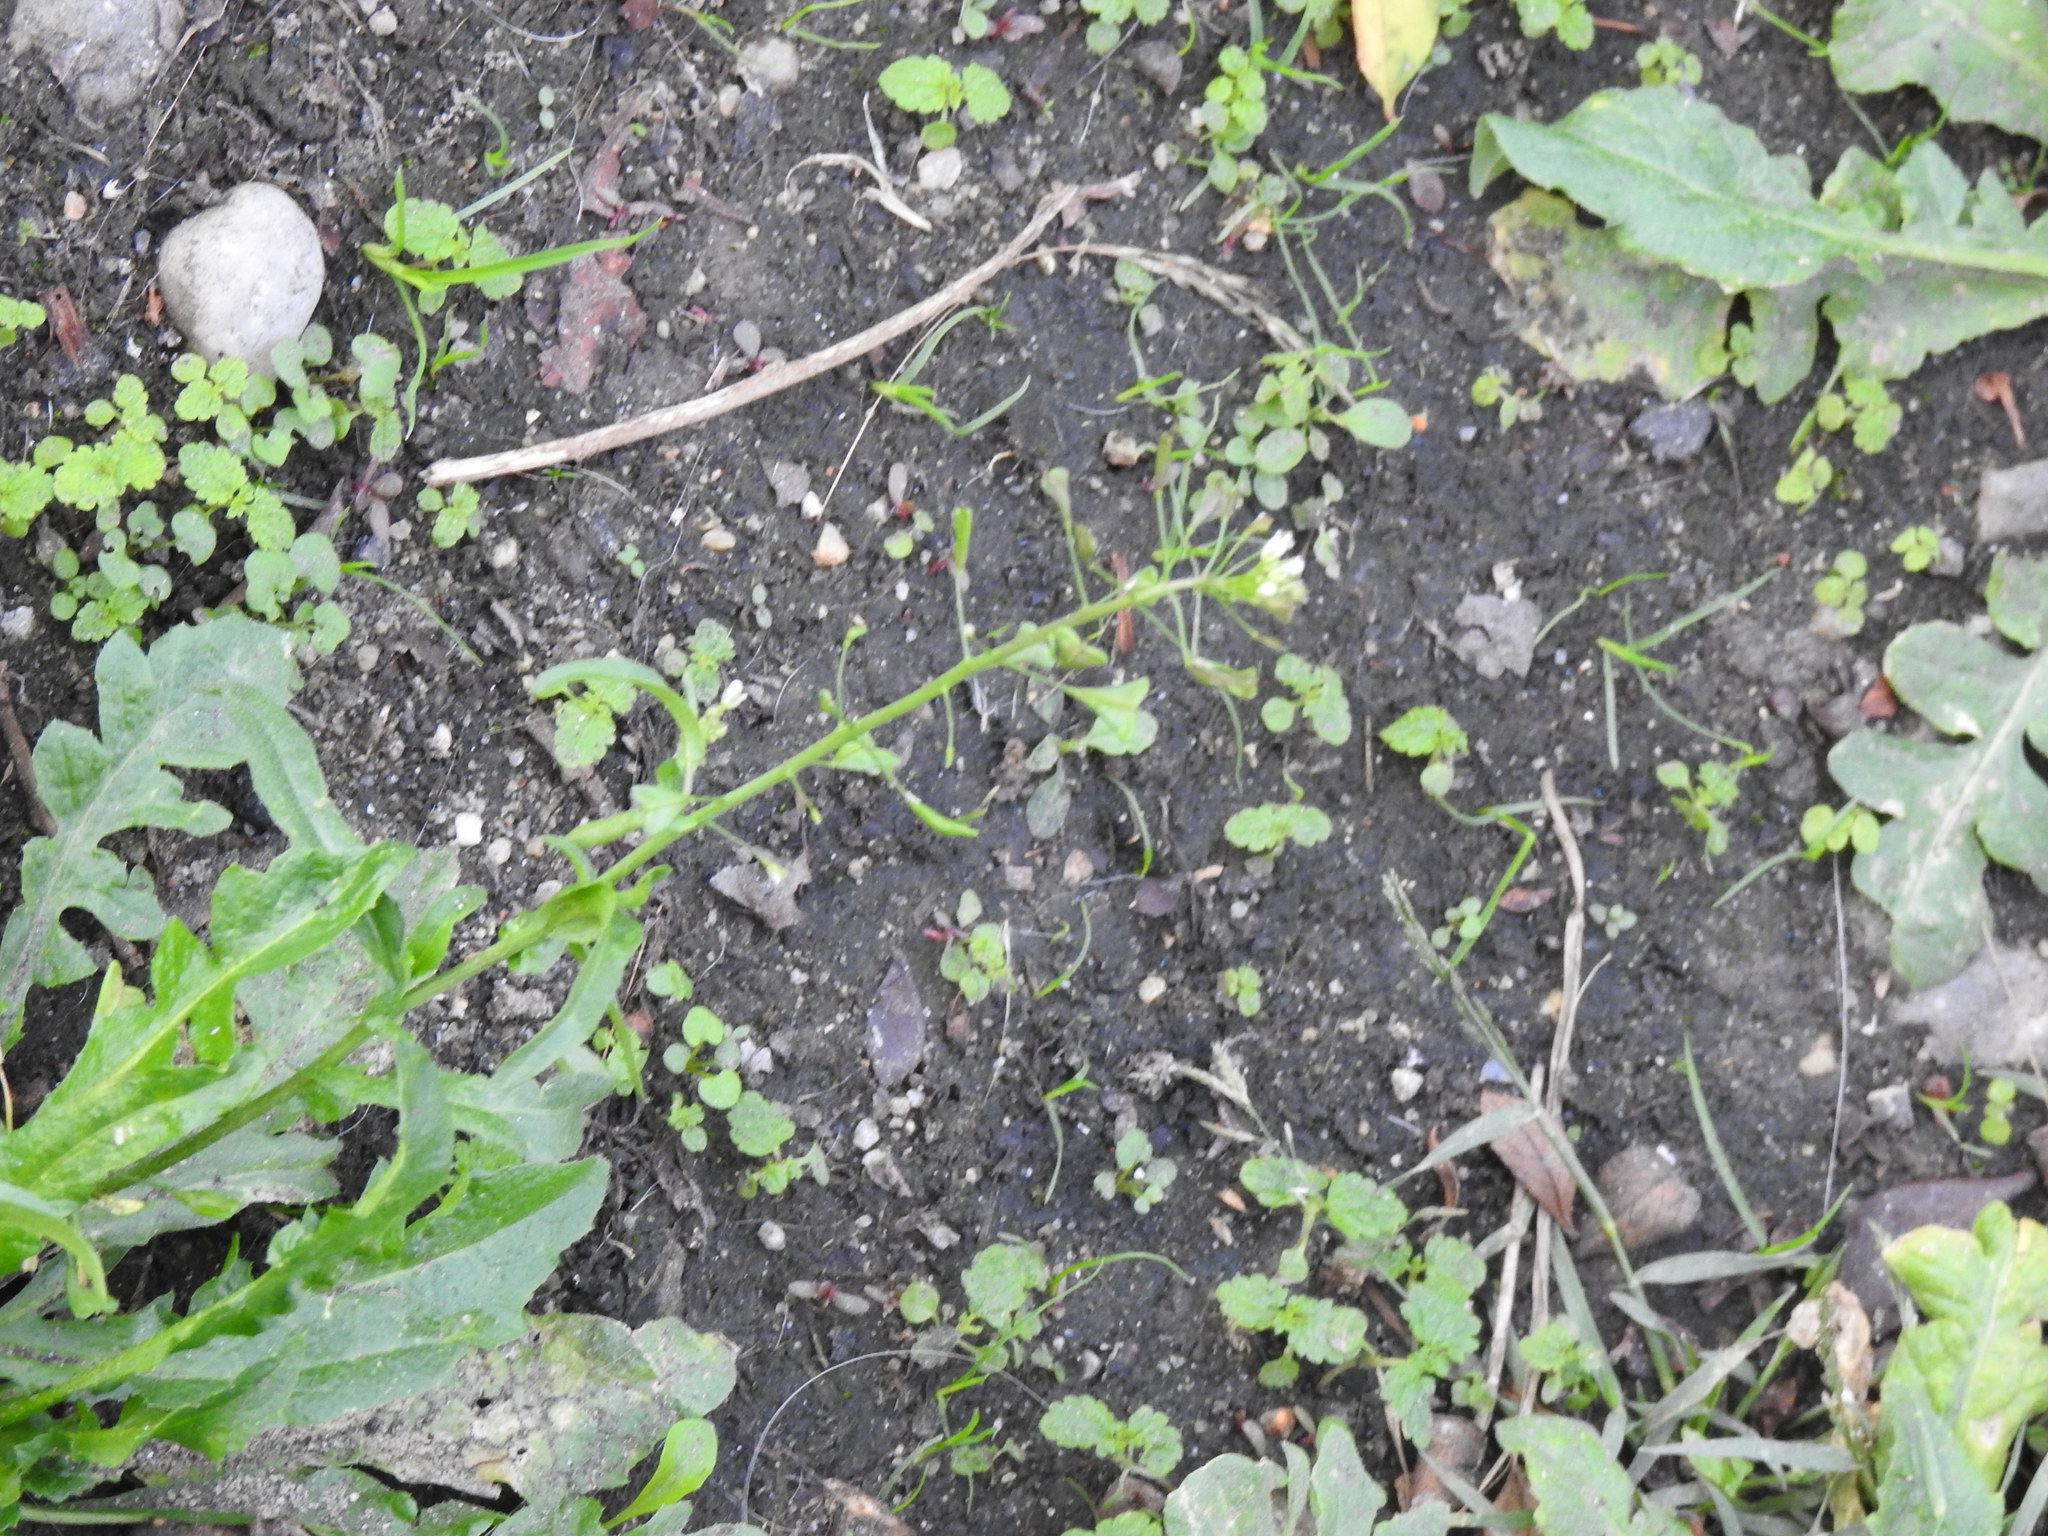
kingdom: Plantae
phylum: Tracheophyta
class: Magnoliopsida
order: Brassicales
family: Brassicaceae
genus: Capsella
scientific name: Capsella bursa-pastoris
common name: Shepherd's purse
